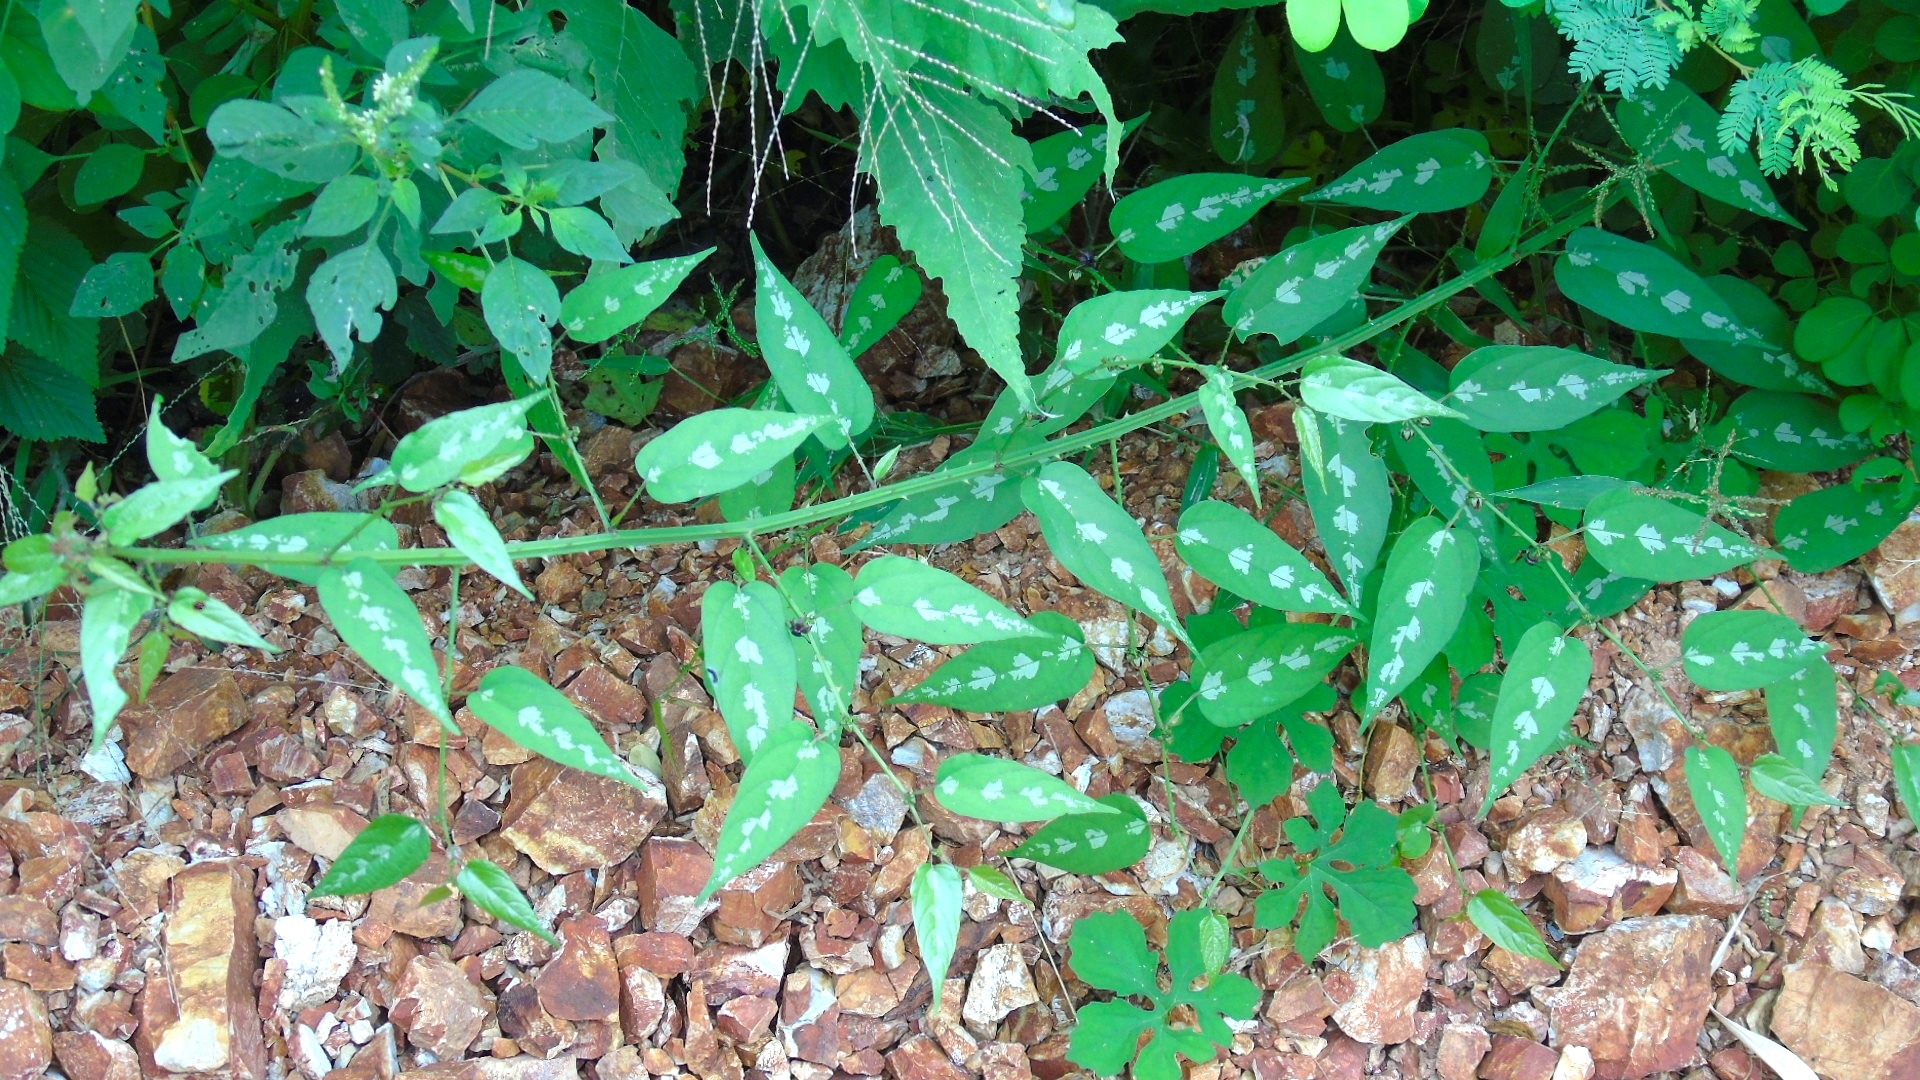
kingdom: Plantae
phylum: Tracheophyta
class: Magnoliopsida
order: Malvales
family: Malvaceae
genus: Byttneria
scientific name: Byttneria aculeata
